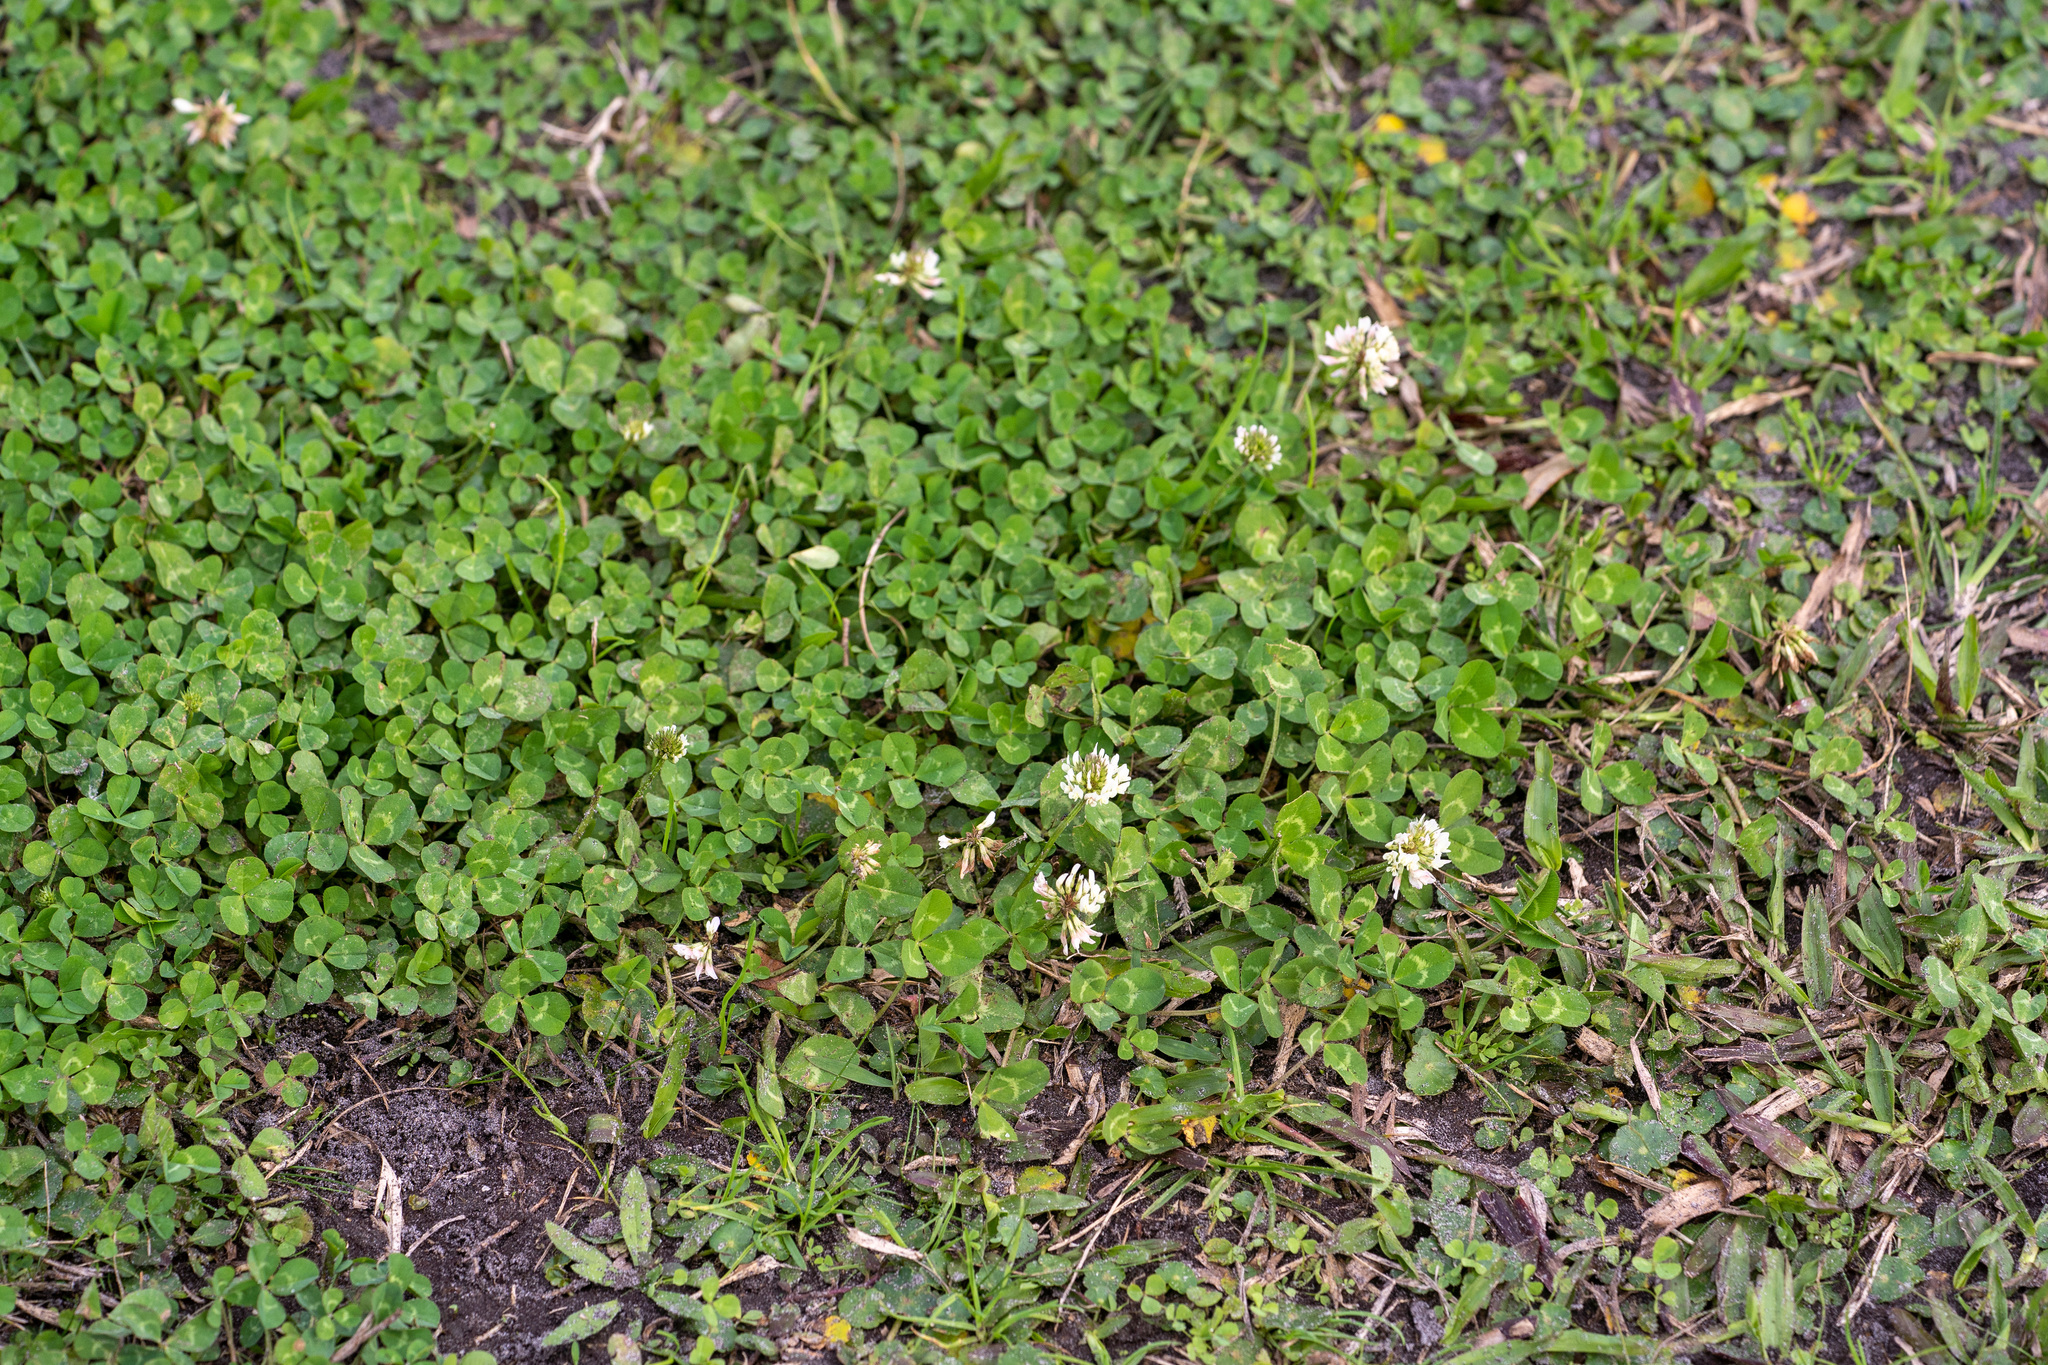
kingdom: Plantae
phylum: Tracheophyta
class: Magnoliopsida
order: Fabales
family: Fabaceae
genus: Trifolium
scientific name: Trifolium repens
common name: White clover
